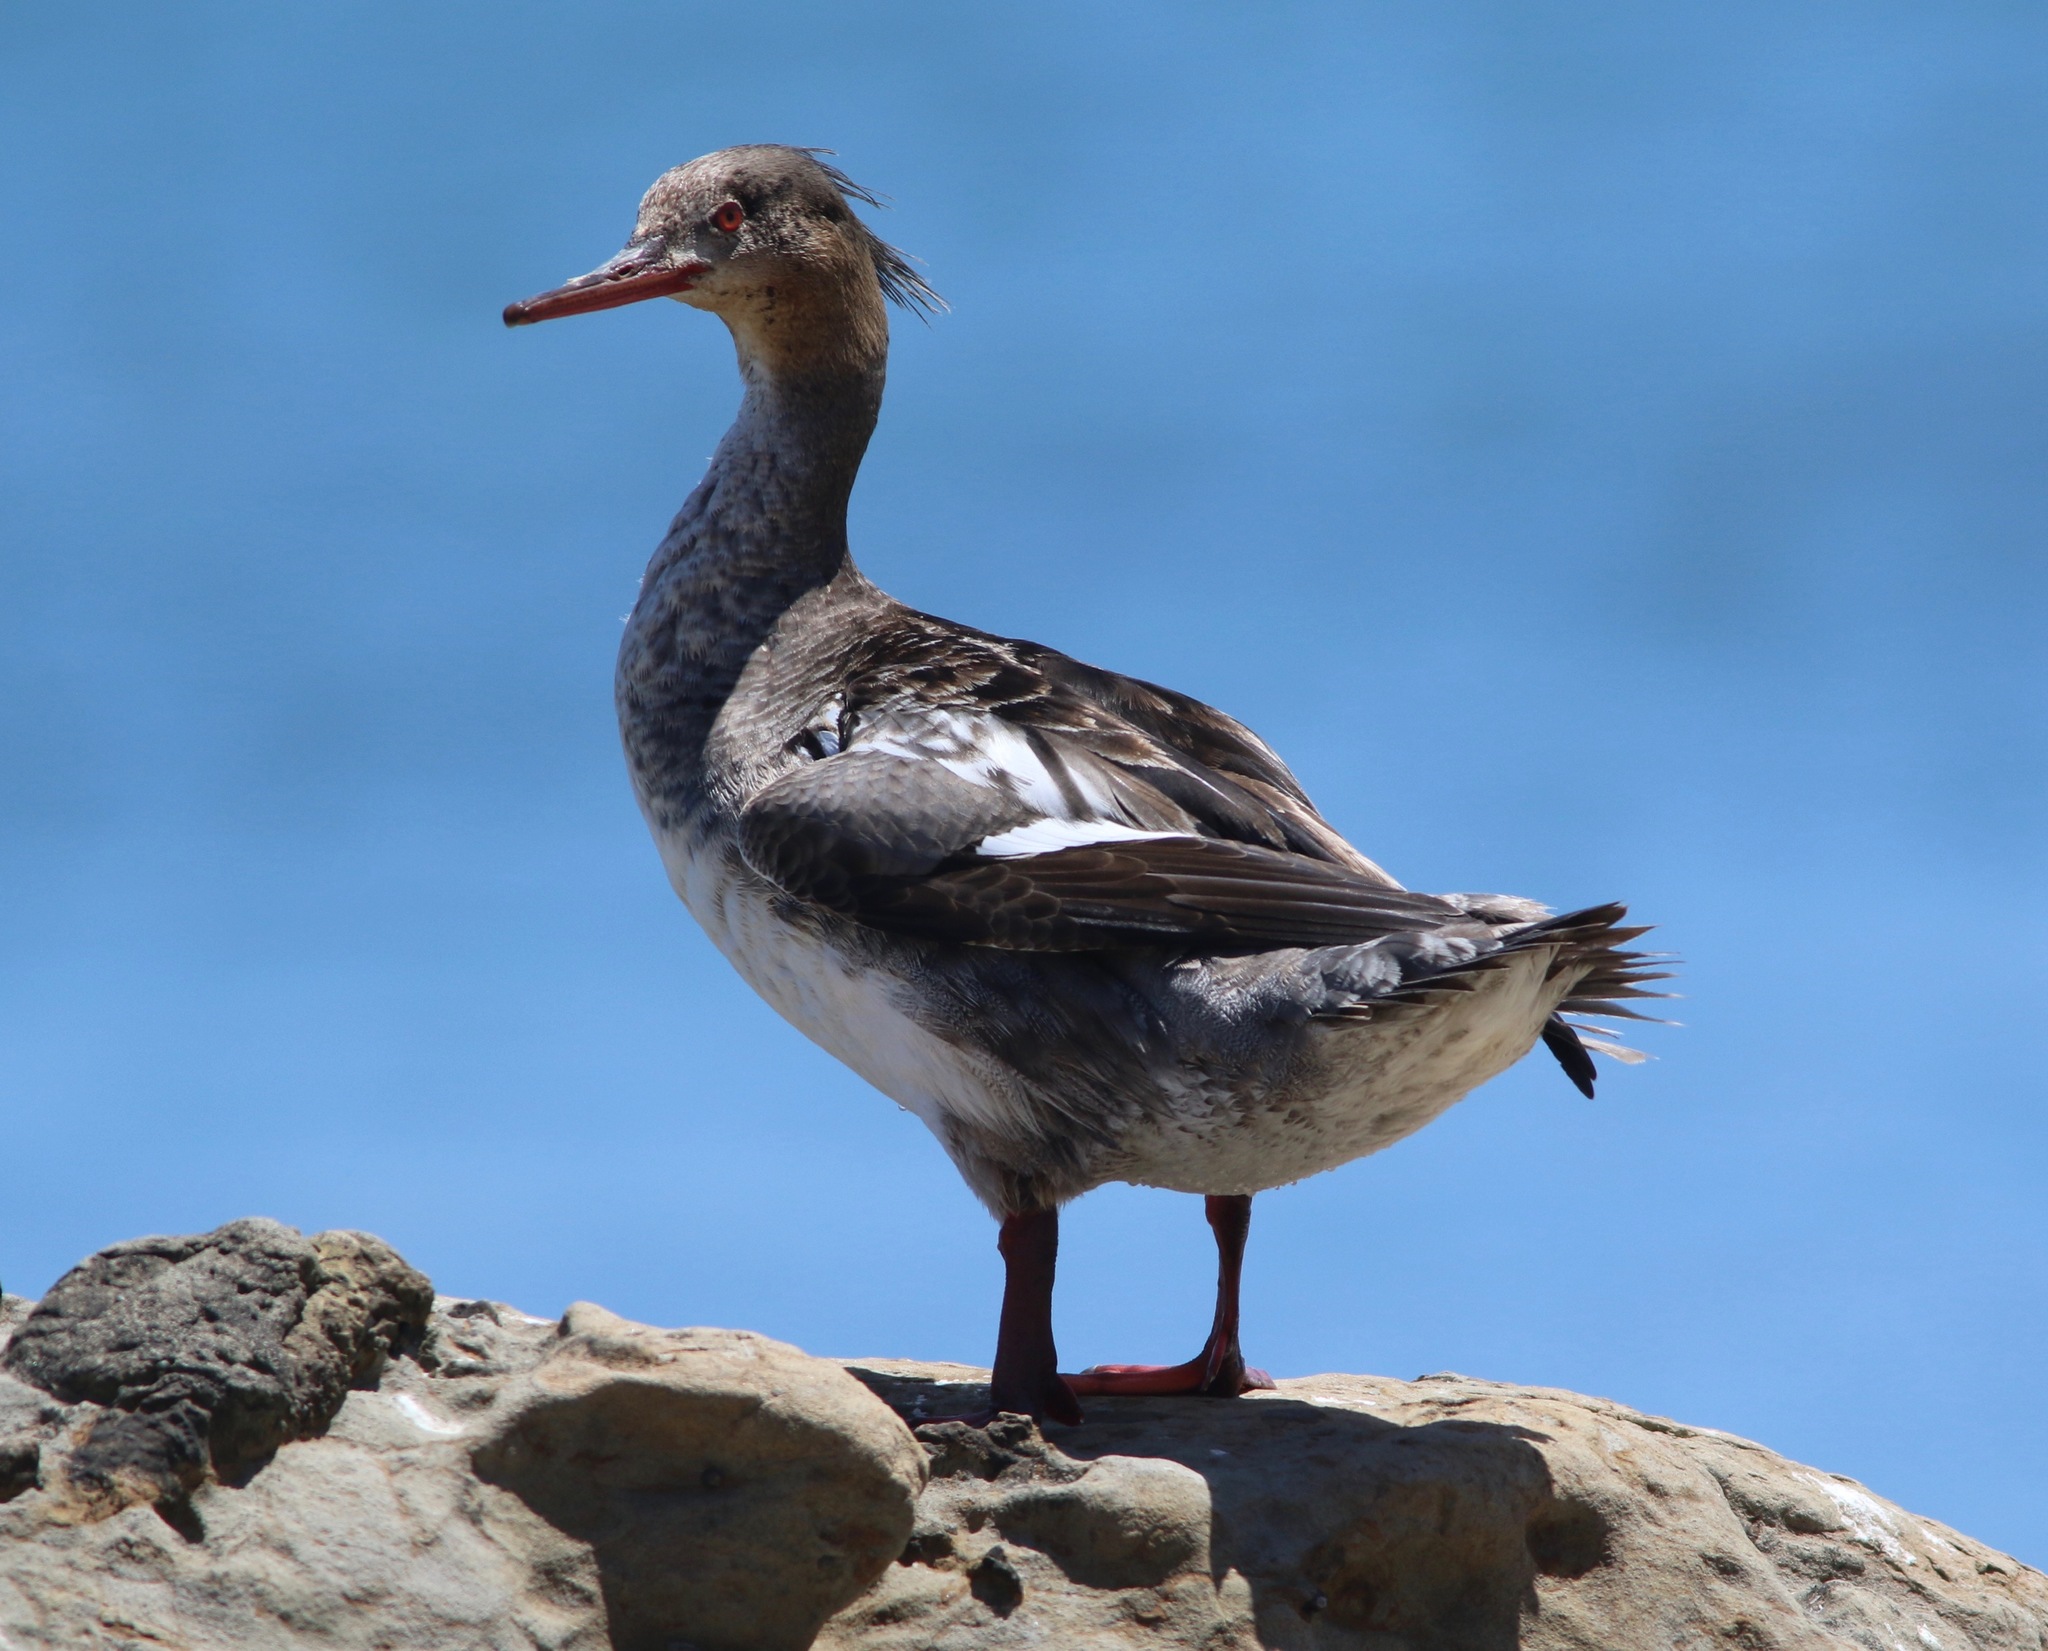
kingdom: Animalia
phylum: Chordata
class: Aves
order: Anseriformes
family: Anatidae
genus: Mergus
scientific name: Mergus serrator
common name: Red-breasted merganser
